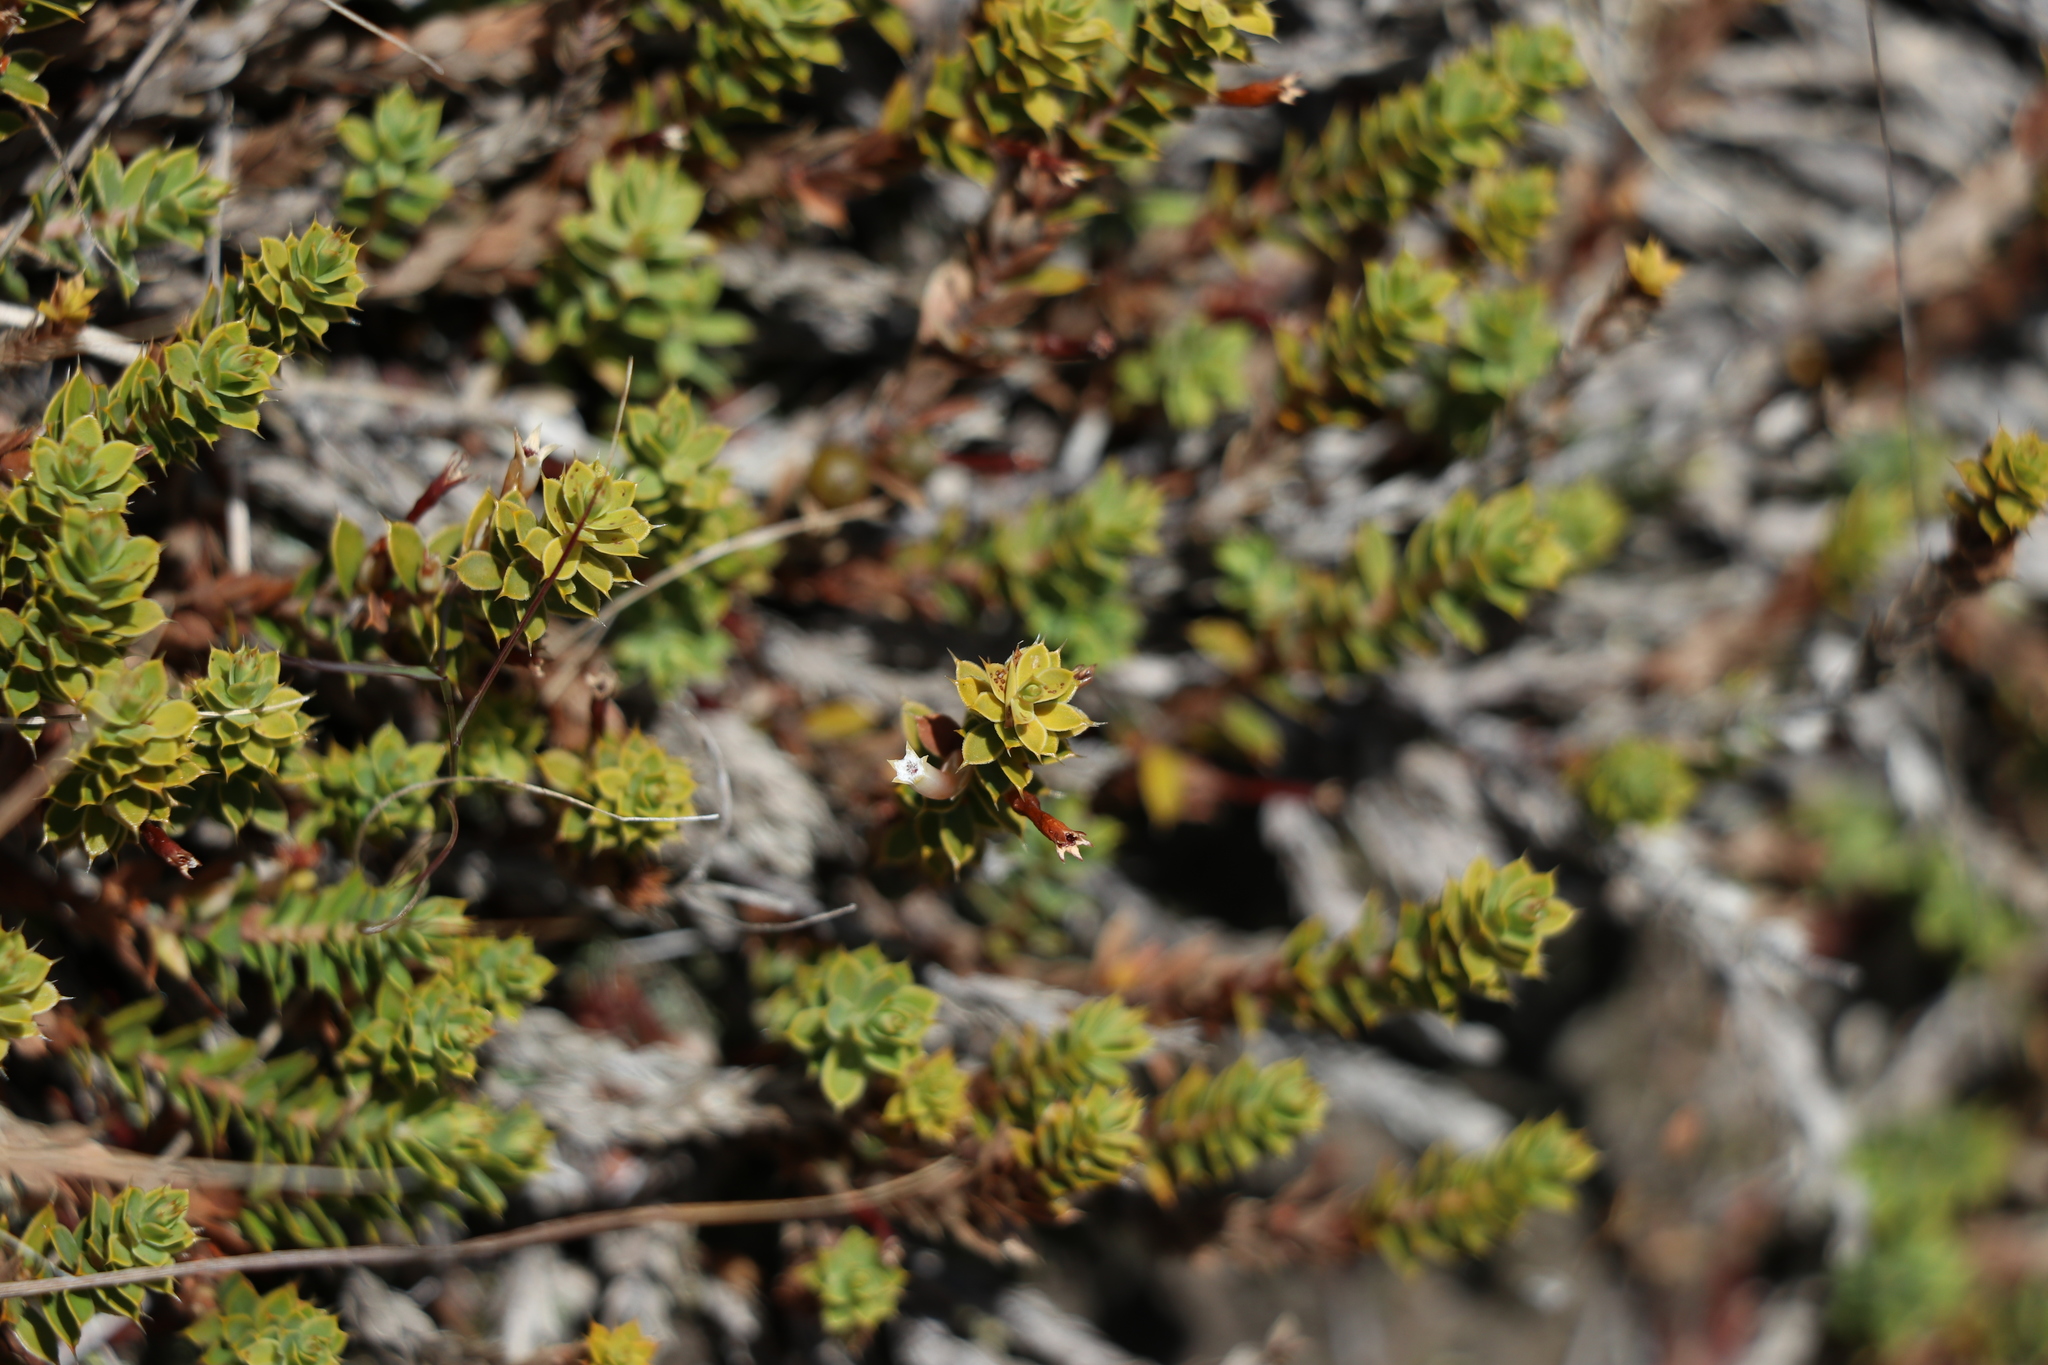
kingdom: Plantae
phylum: Tracheophyta
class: Magnoliopsida
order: Ericales
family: Ericaceae
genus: Styphelia
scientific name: Styphelia nesophila
